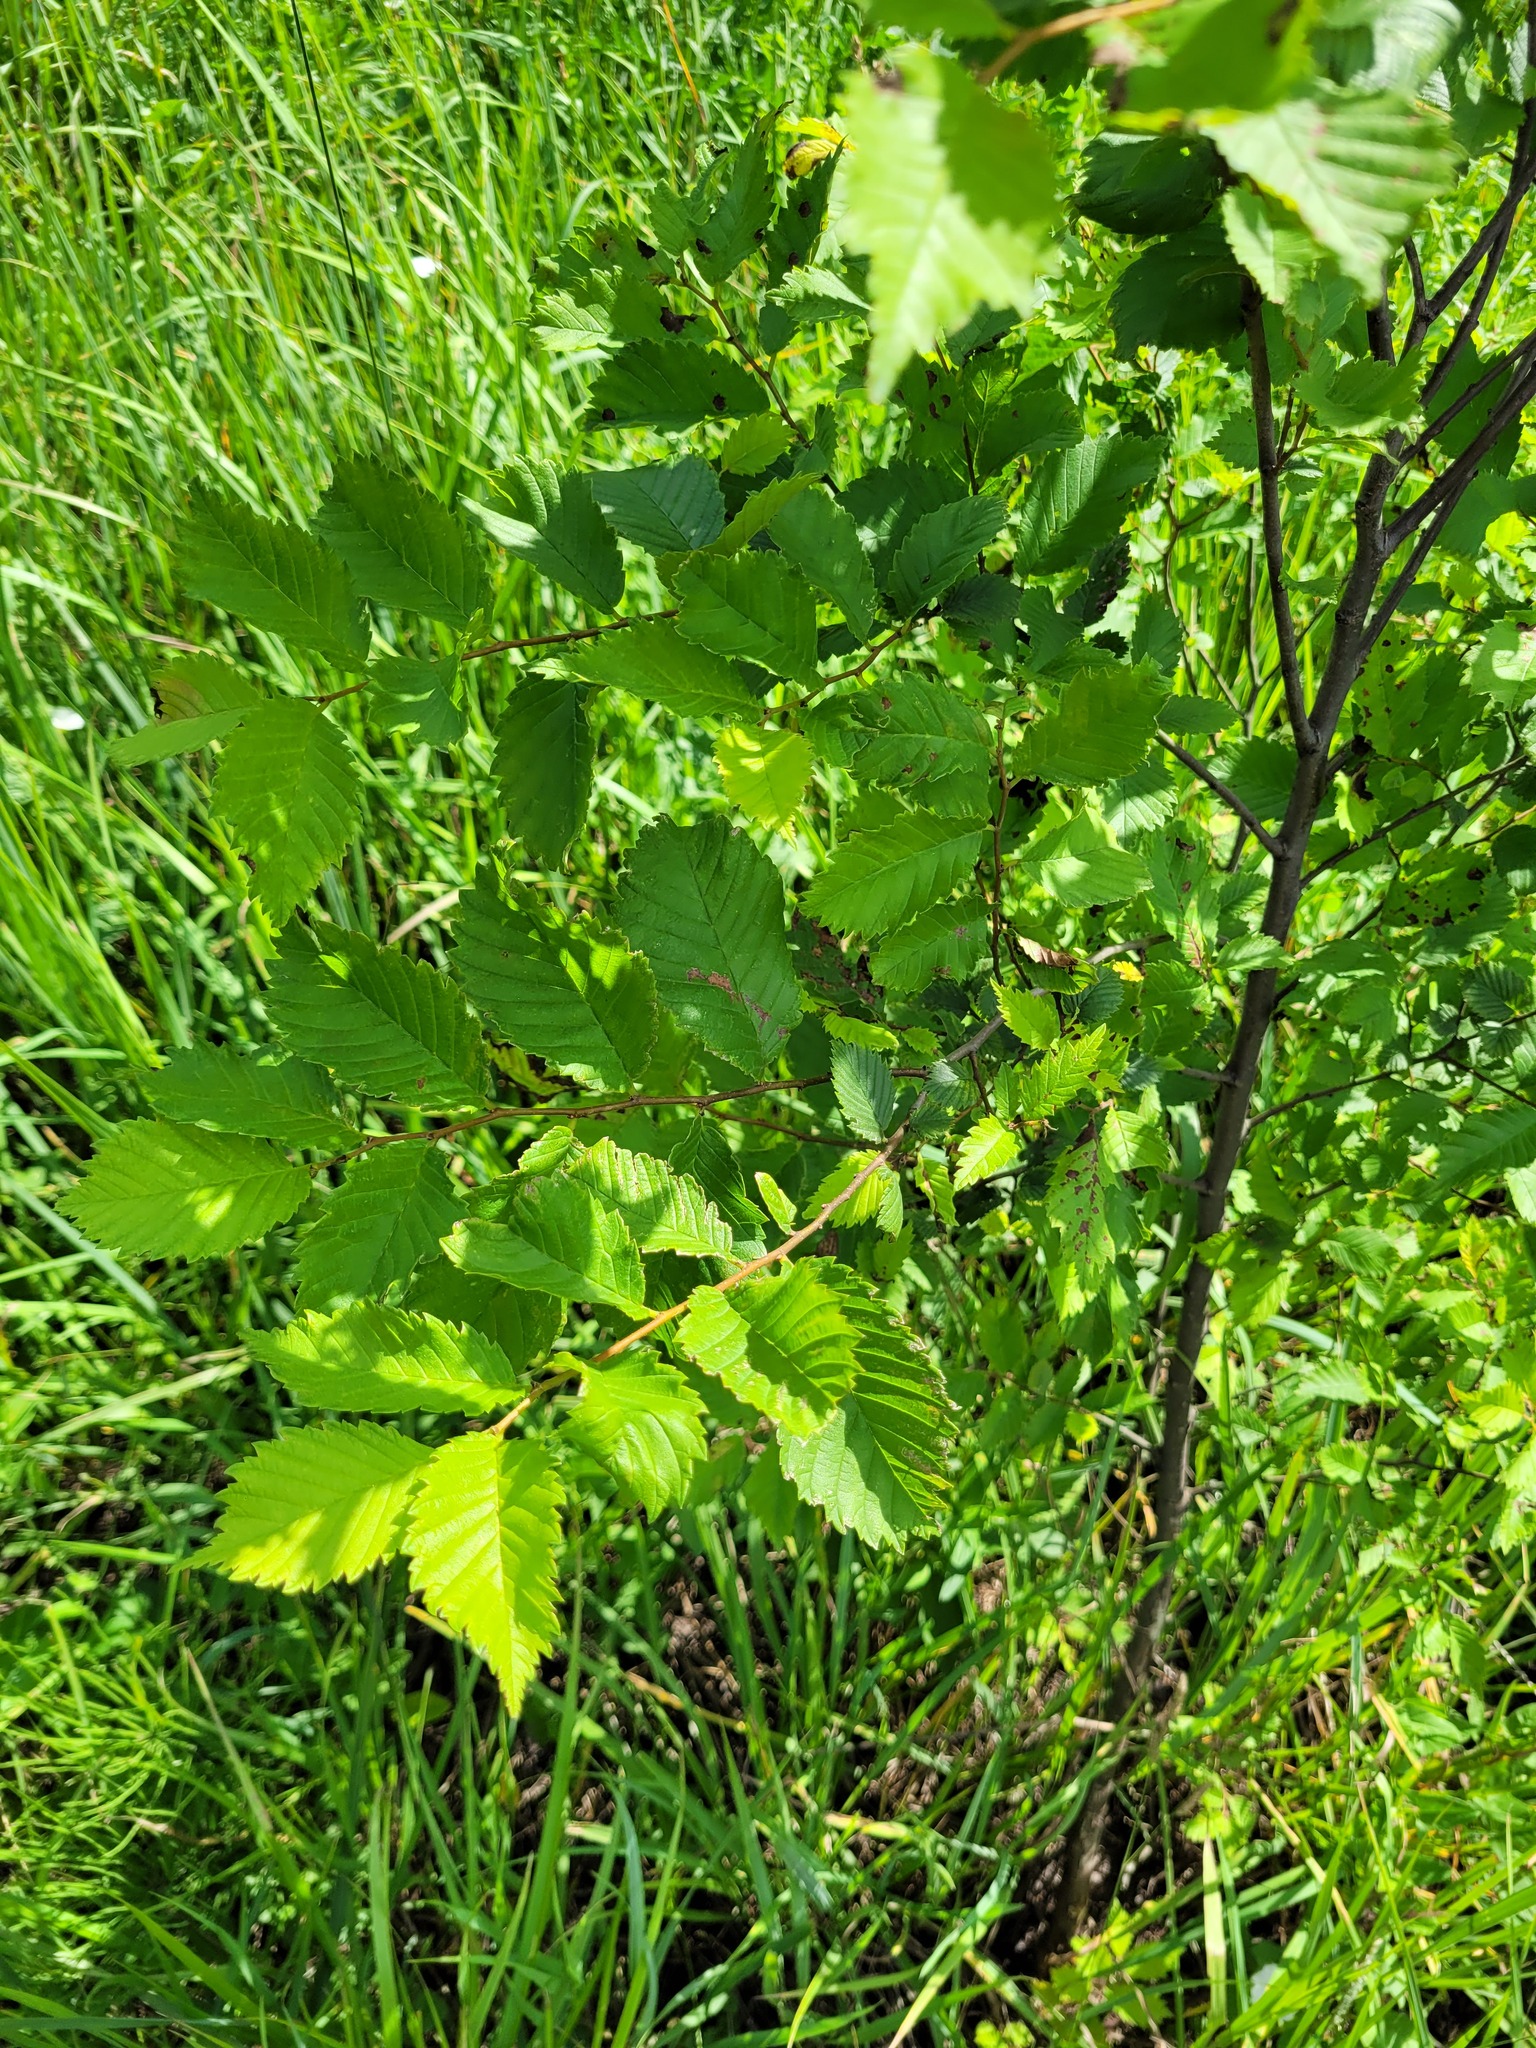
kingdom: Plantae
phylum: Tracheophyta
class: Magnoliopsida
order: Rosales
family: Ulmaceae
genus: Ulmus
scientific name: Ulmus laevis
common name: European white-elm
